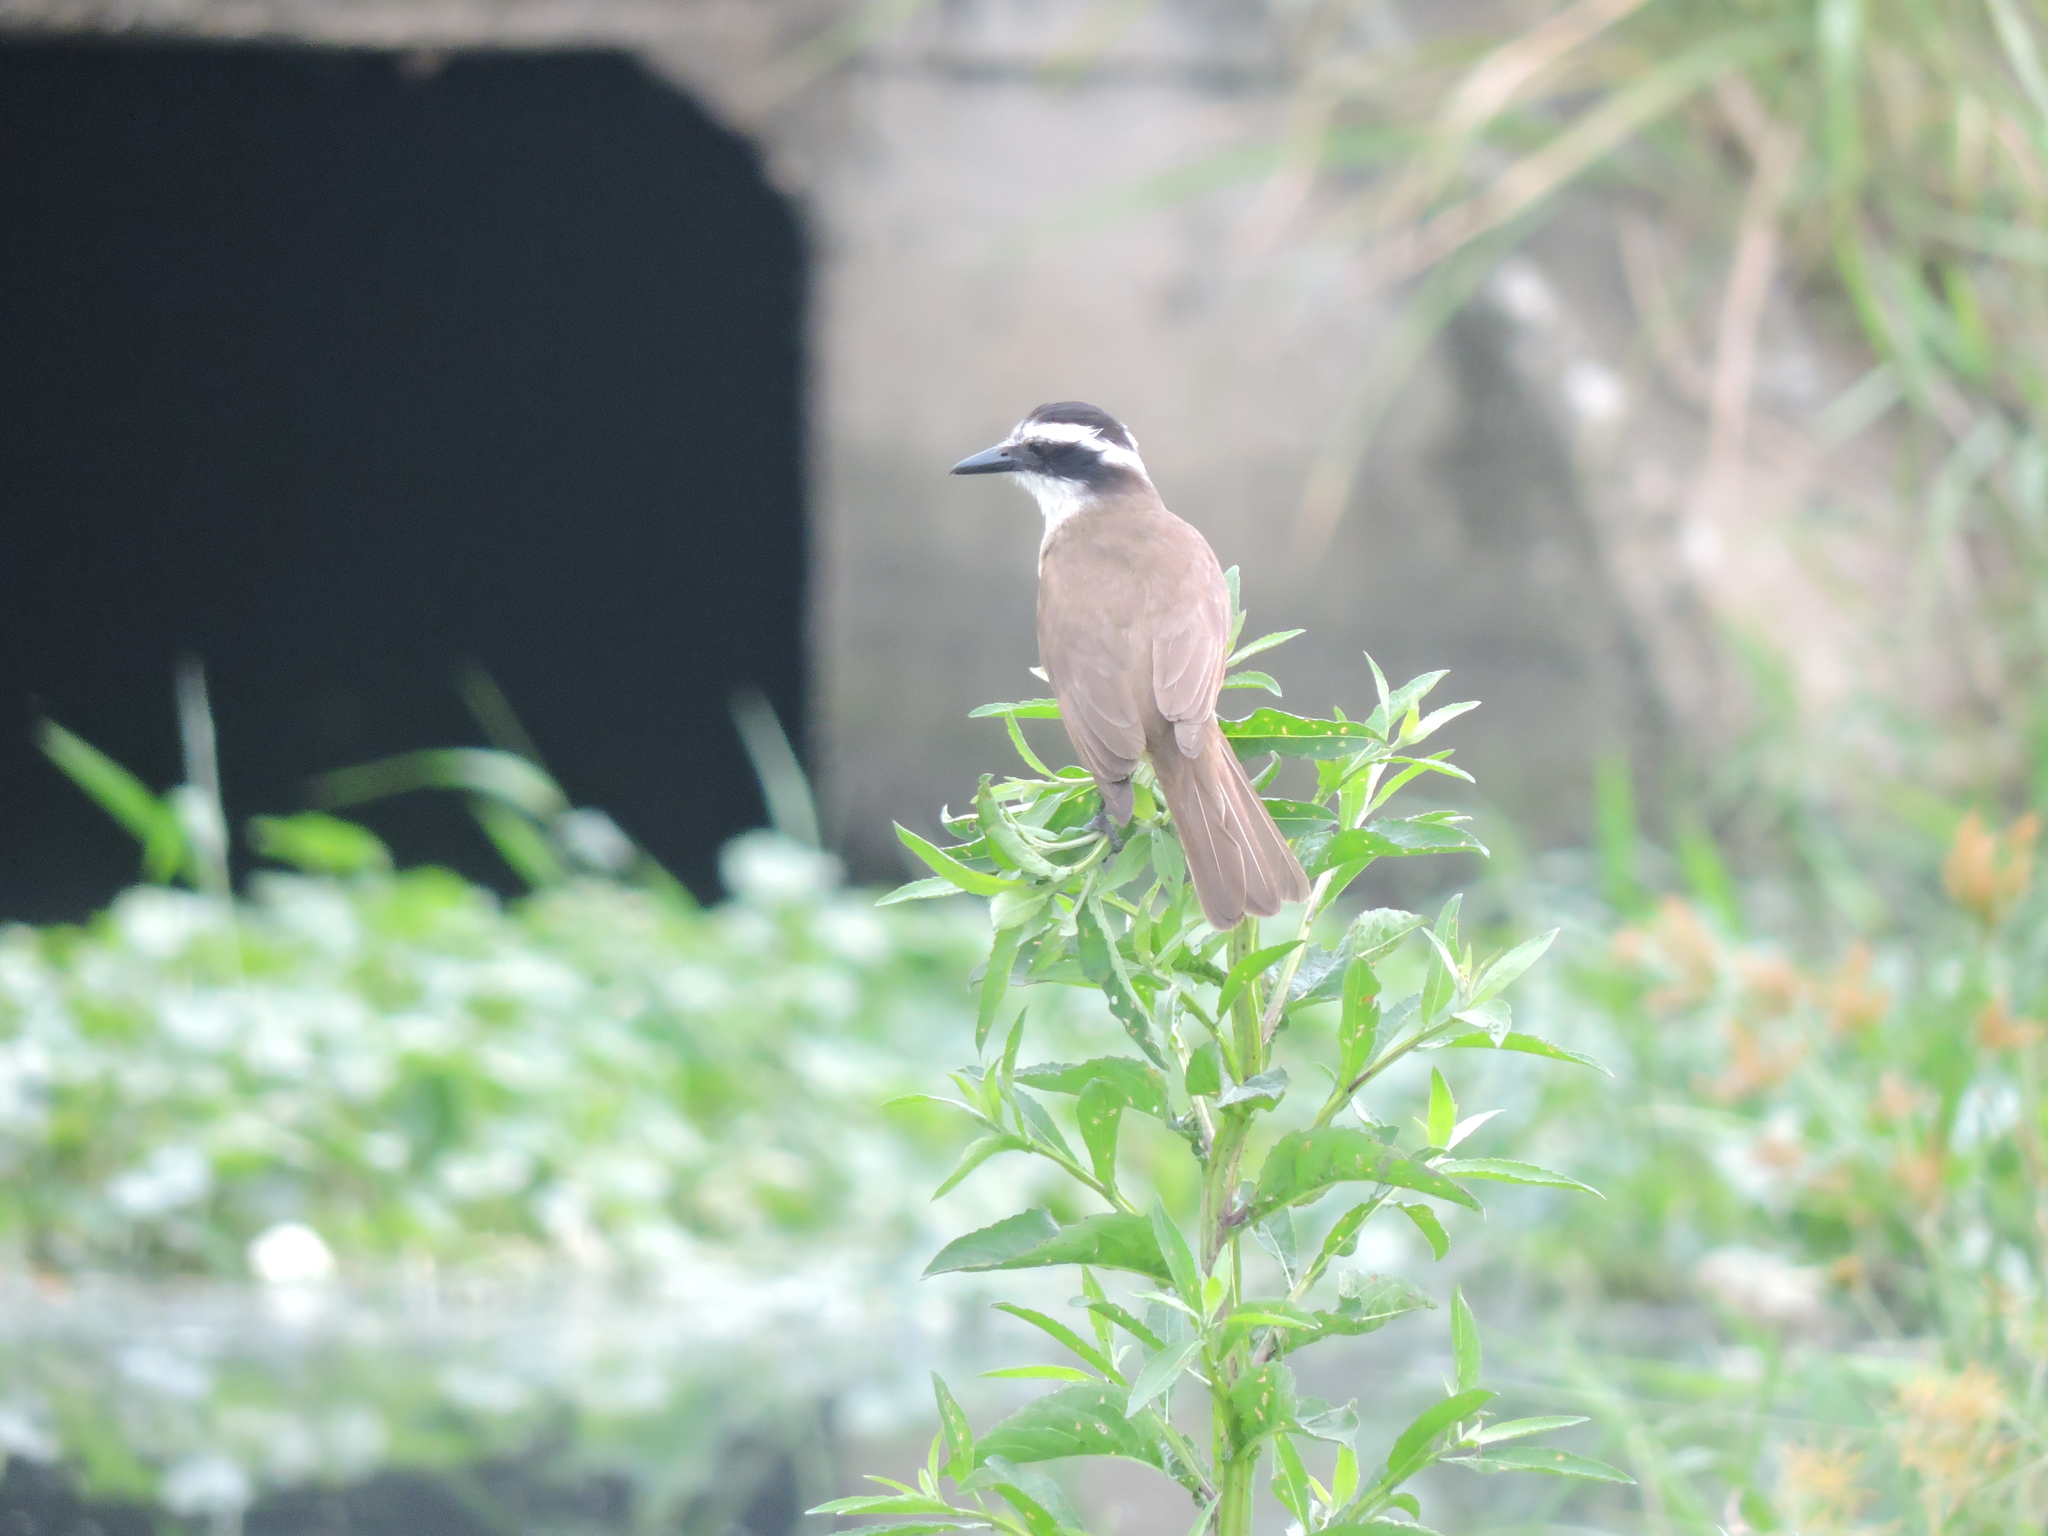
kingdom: Animalia
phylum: Chordata
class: Aves
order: Passeriformes
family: Tyrannidae
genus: Pitangus
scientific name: Pitangus sulphuratus
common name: Great kiskadee
